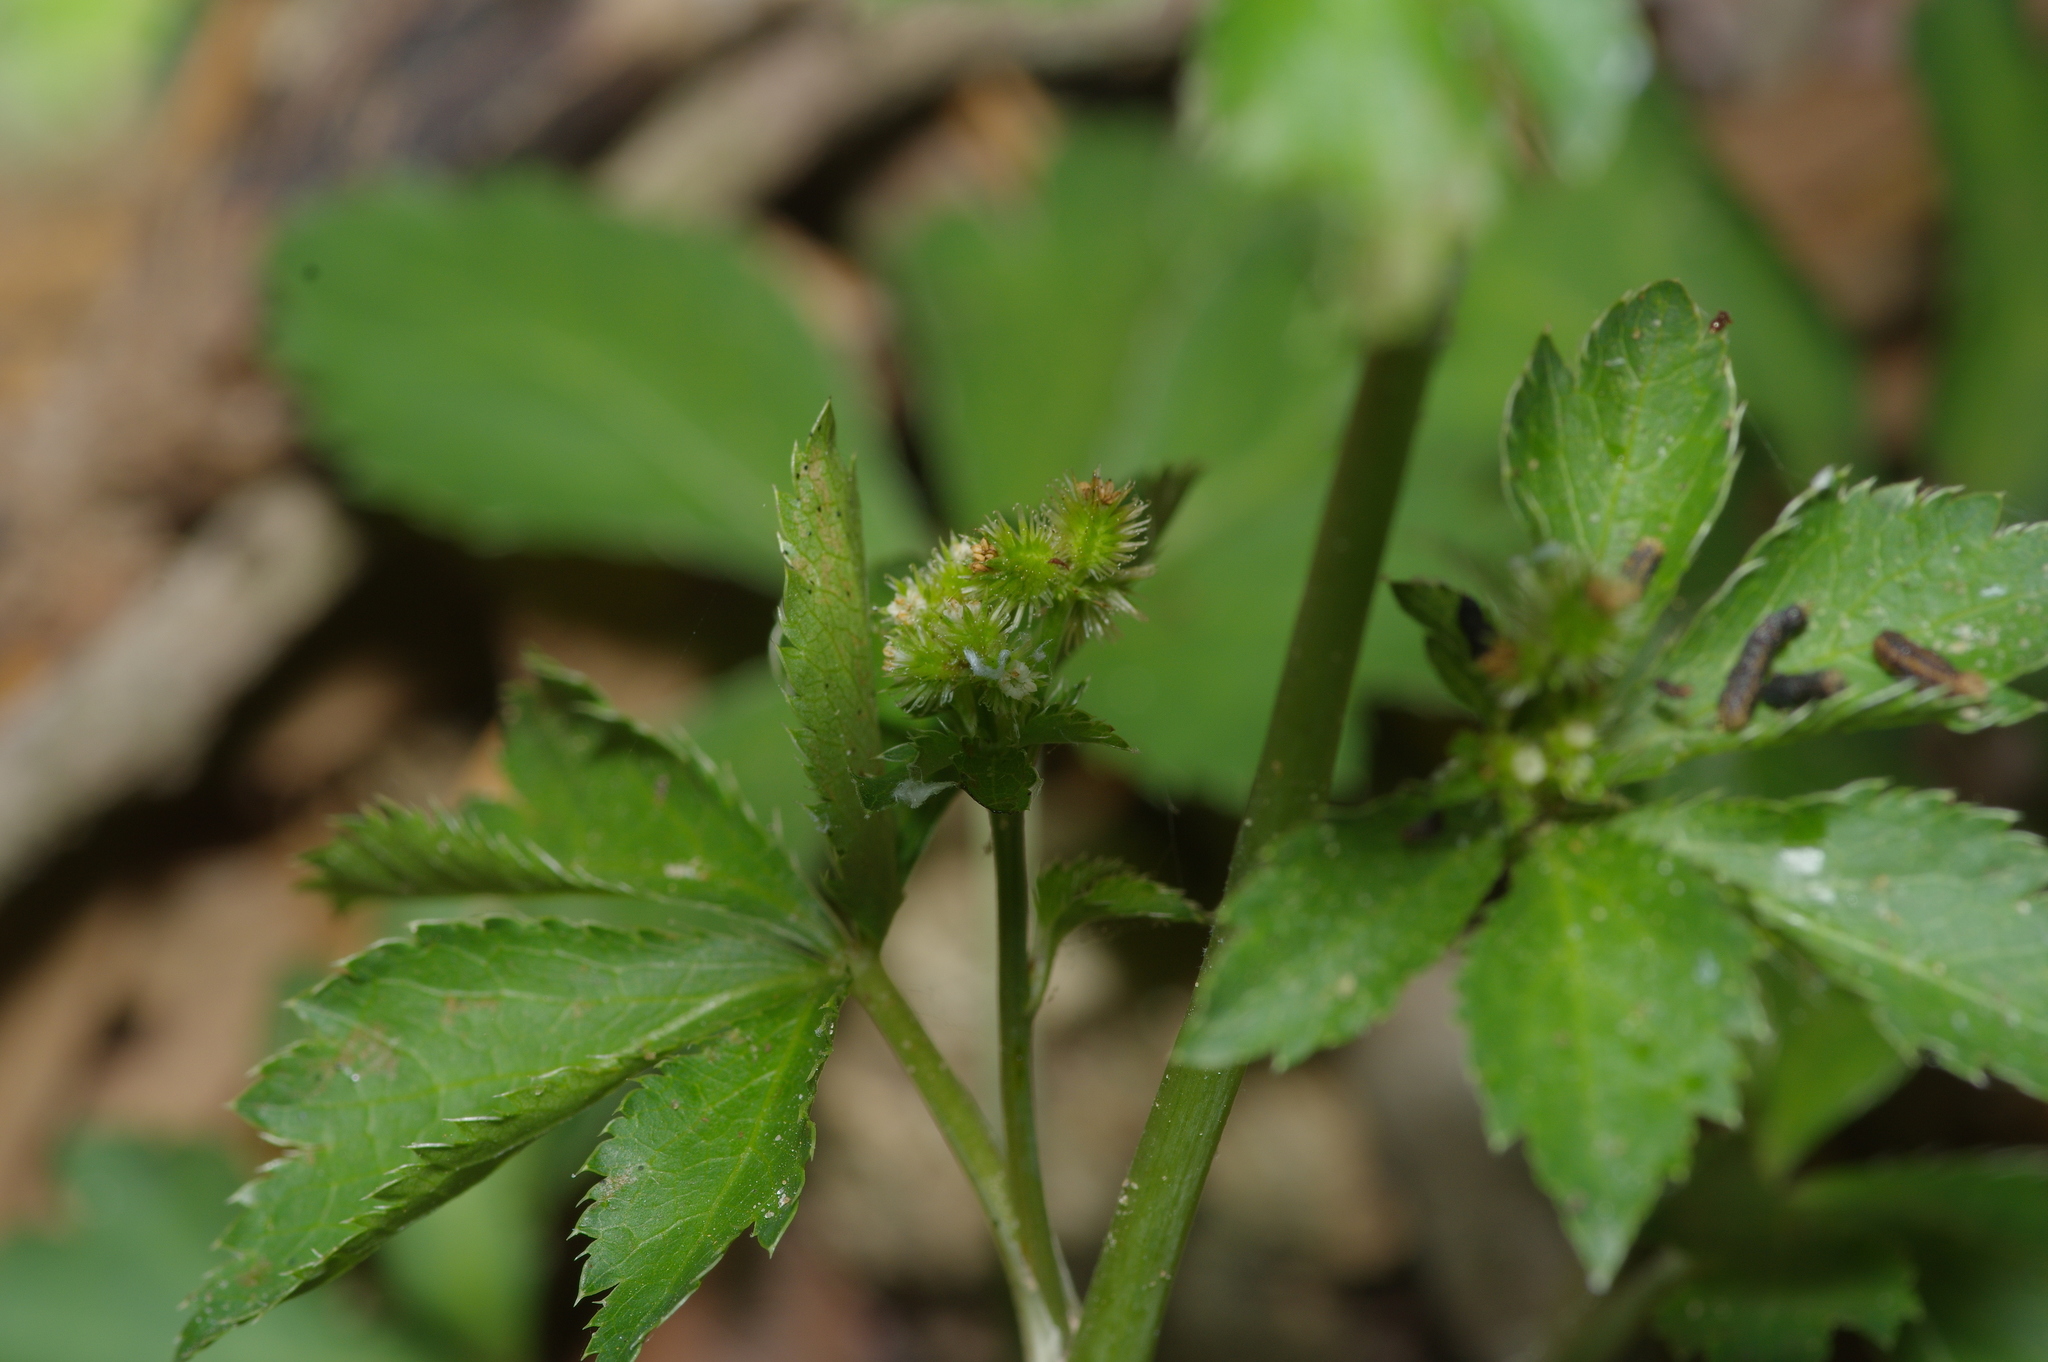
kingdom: Plantae
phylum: Tracheophyta
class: Magnoliopsida
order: Apiales
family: Apiaceae
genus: Sanicula
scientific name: Sanicula canadensis
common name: Canada sanicle
